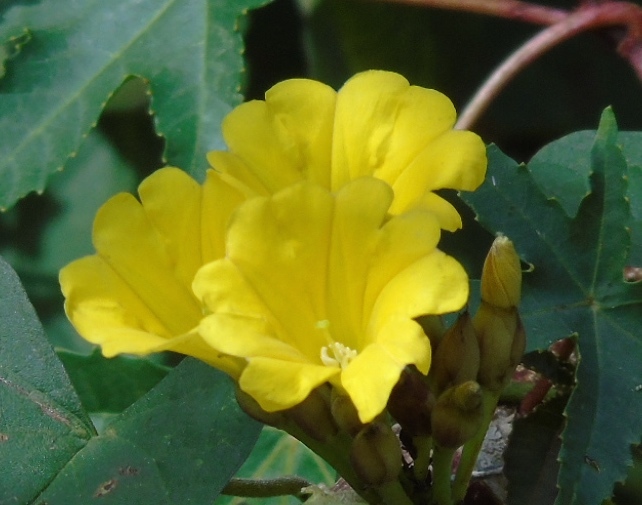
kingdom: Plantae
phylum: Tracheophyta
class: Magnoliopsida
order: Solanales
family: Convolvulaceae
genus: Camonea
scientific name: Camonea umbellata
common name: Hogvine
